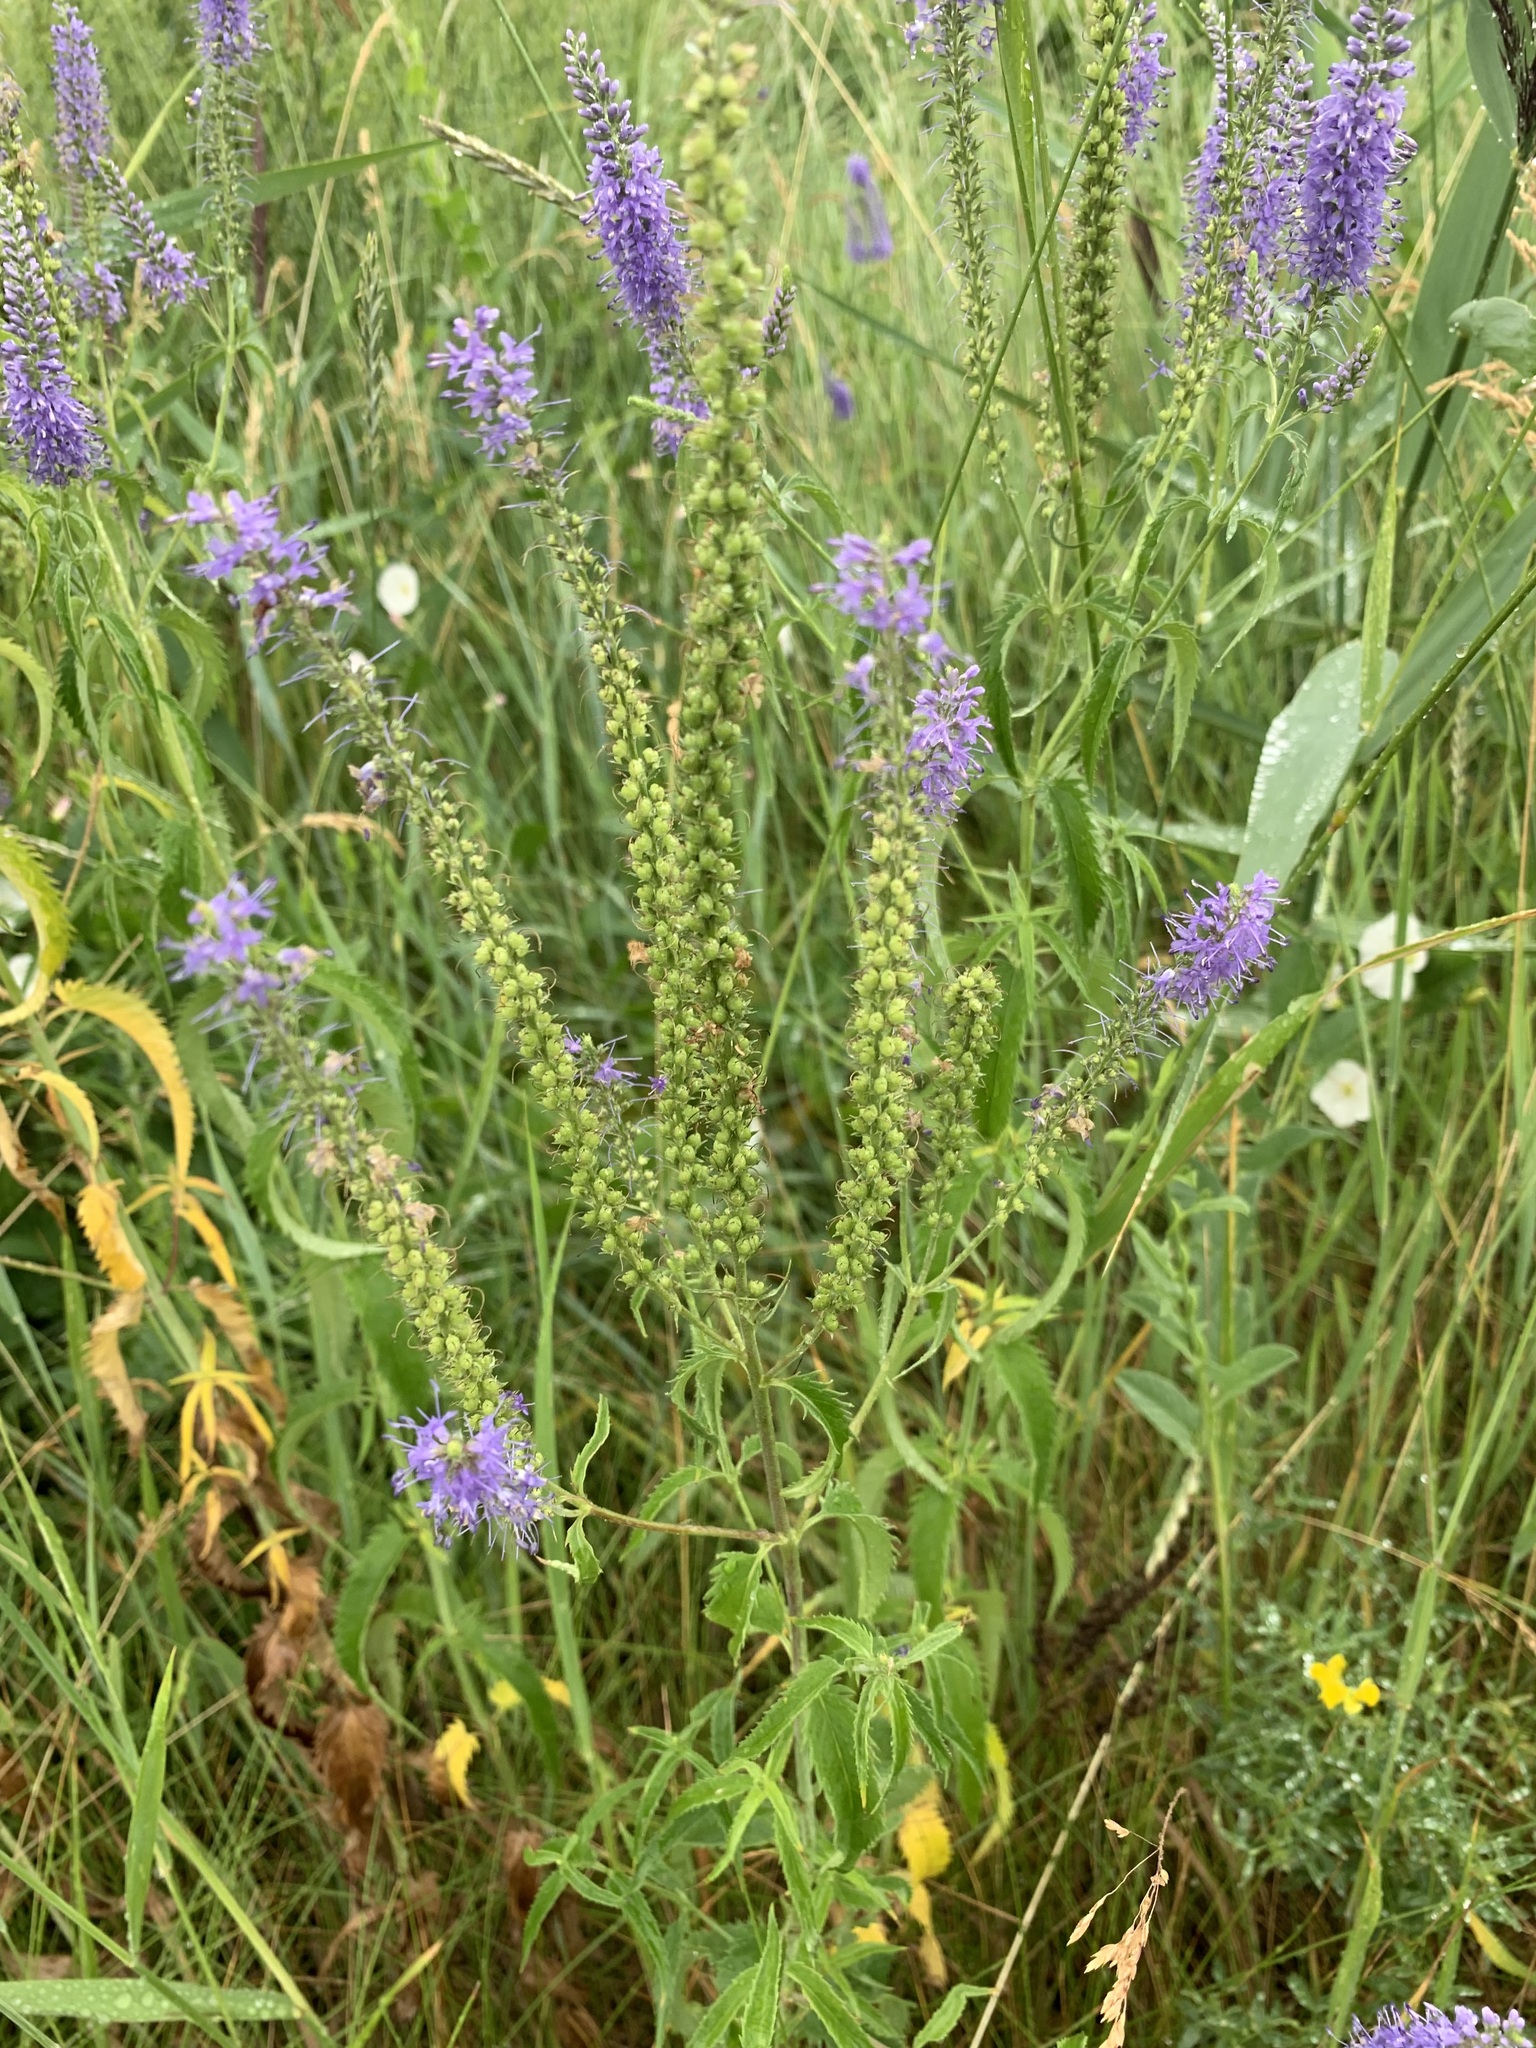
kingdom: Plantae
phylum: Tracheophyta
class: Magnoliopsida
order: Lamiales
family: Plantaginaceae
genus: Veronica
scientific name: Veronica longifolia
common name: Garden speedwell
